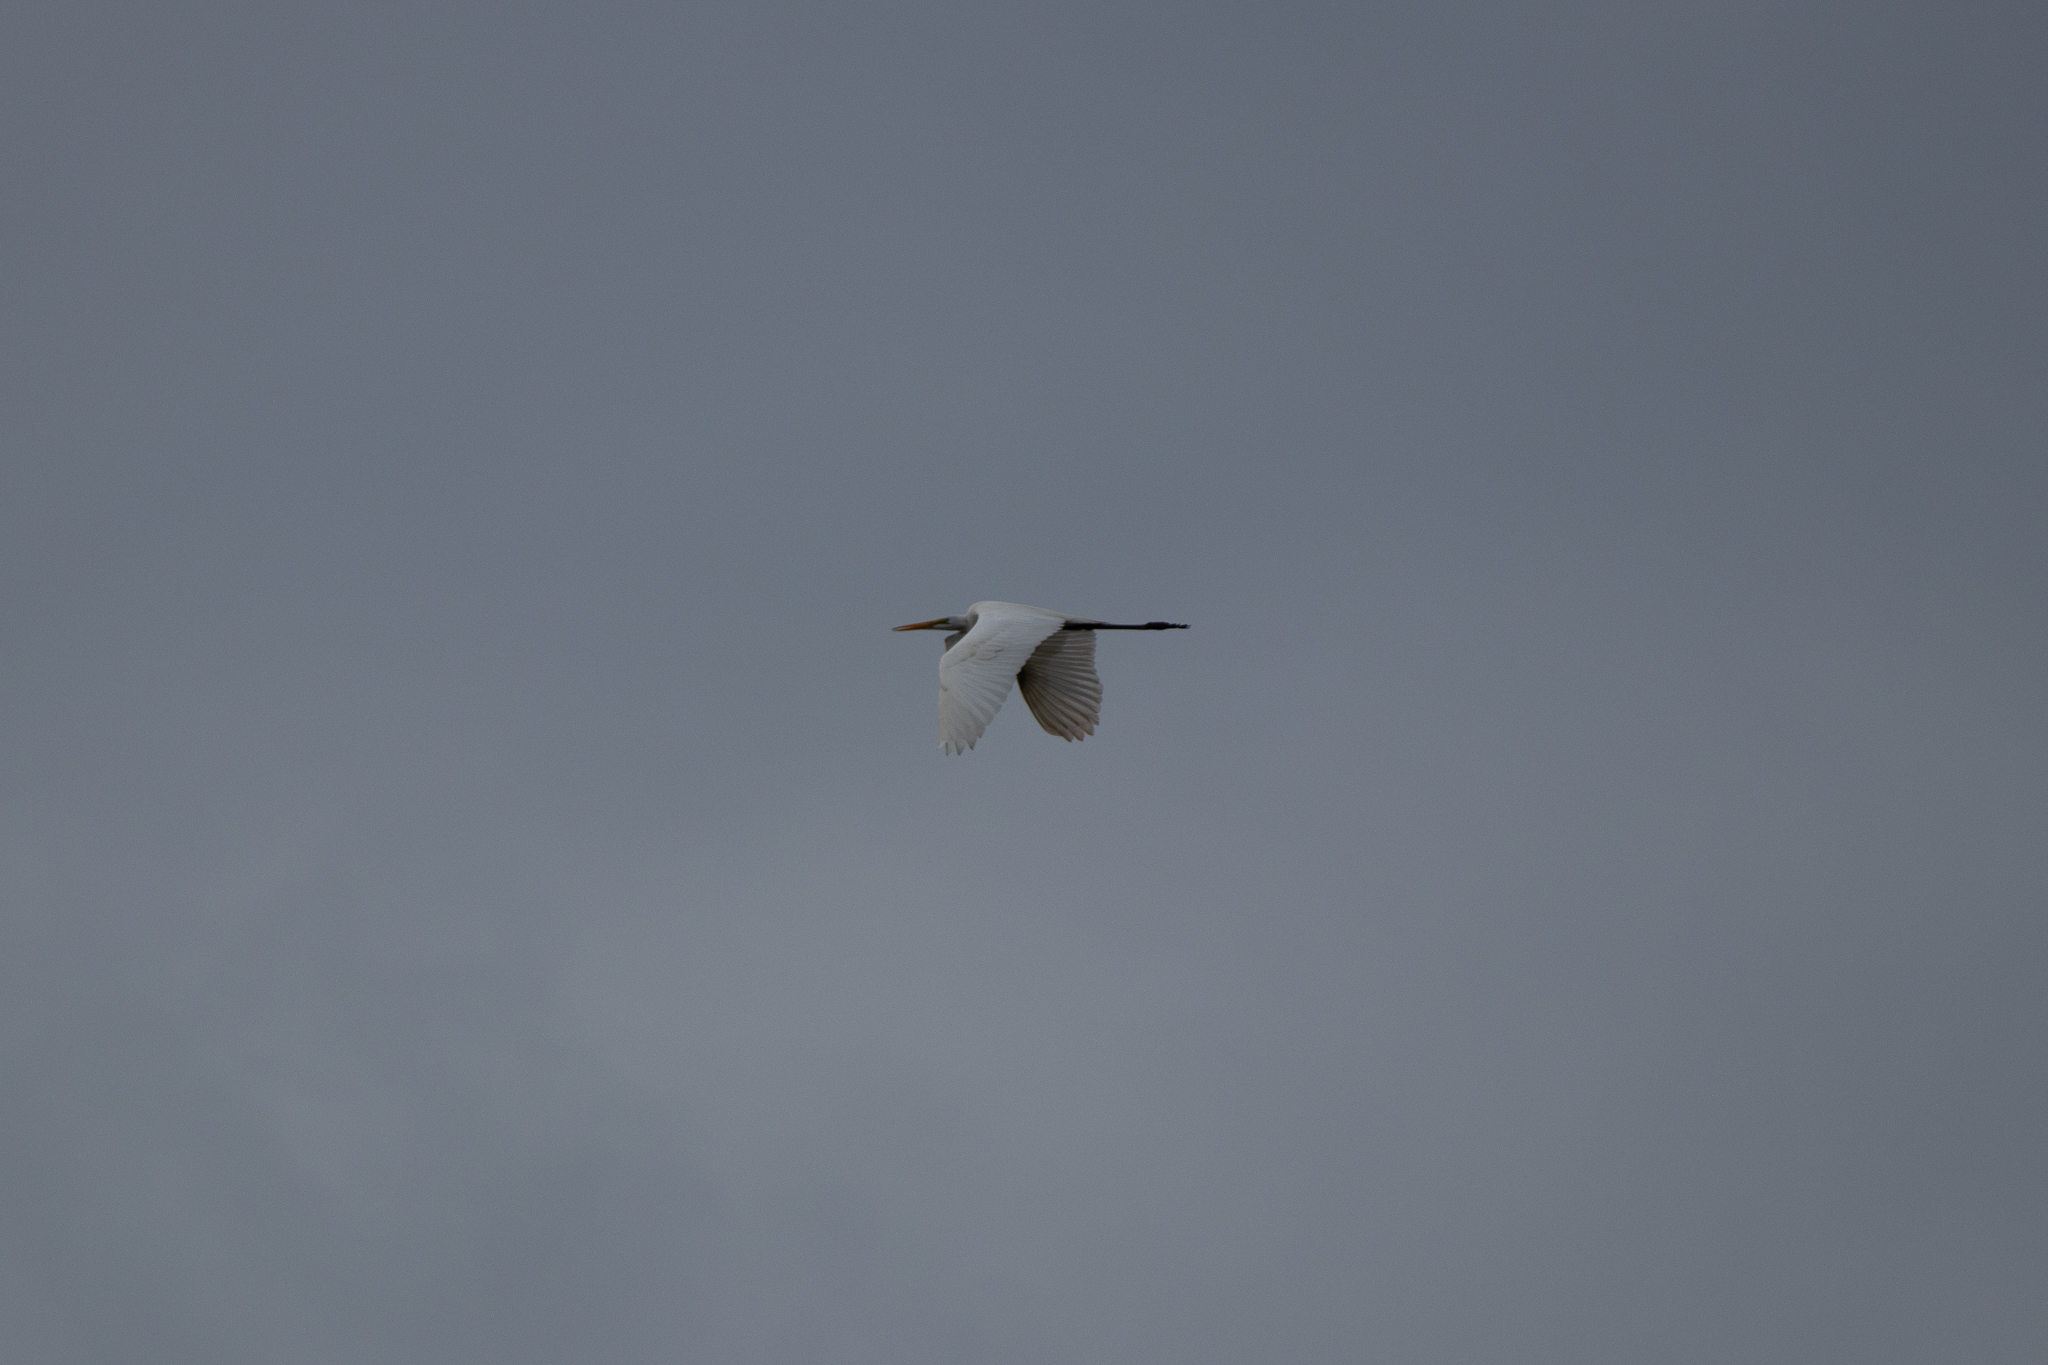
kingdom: Animalia
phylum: Chordata
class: Aves
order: Pelecaniformes
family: Ardeidae
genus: Ardea
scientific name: Ardea alba
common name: Great egret
